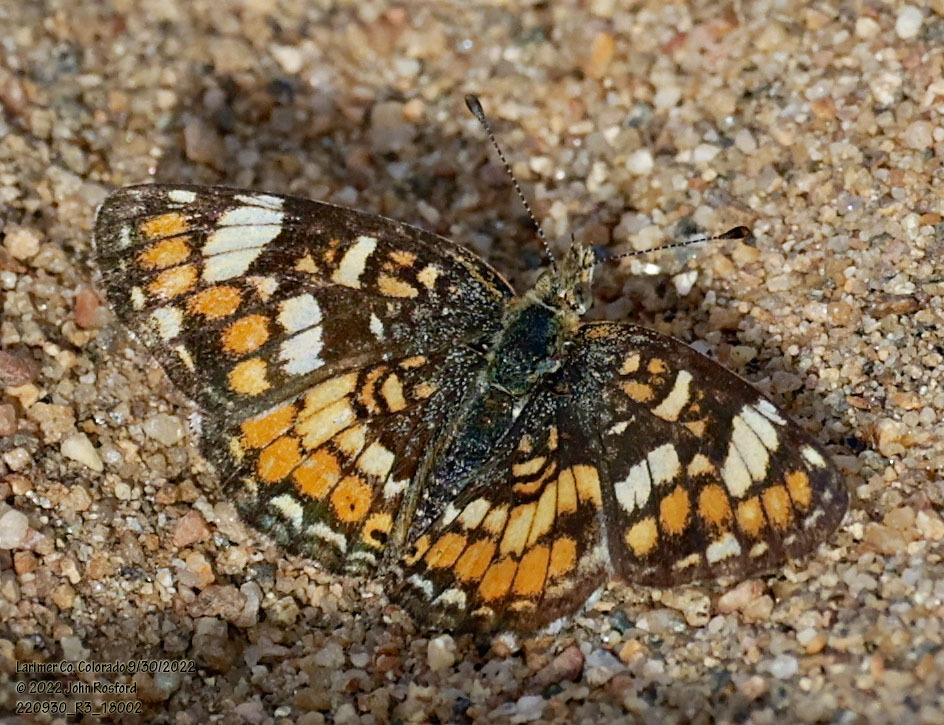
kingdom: Animalia
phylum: Arthropoda
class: Insecta
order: Lepidoptera
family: Nymphalidae
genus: Phyciodes
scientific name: Phyciodes tharos
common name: Pearl crescent
